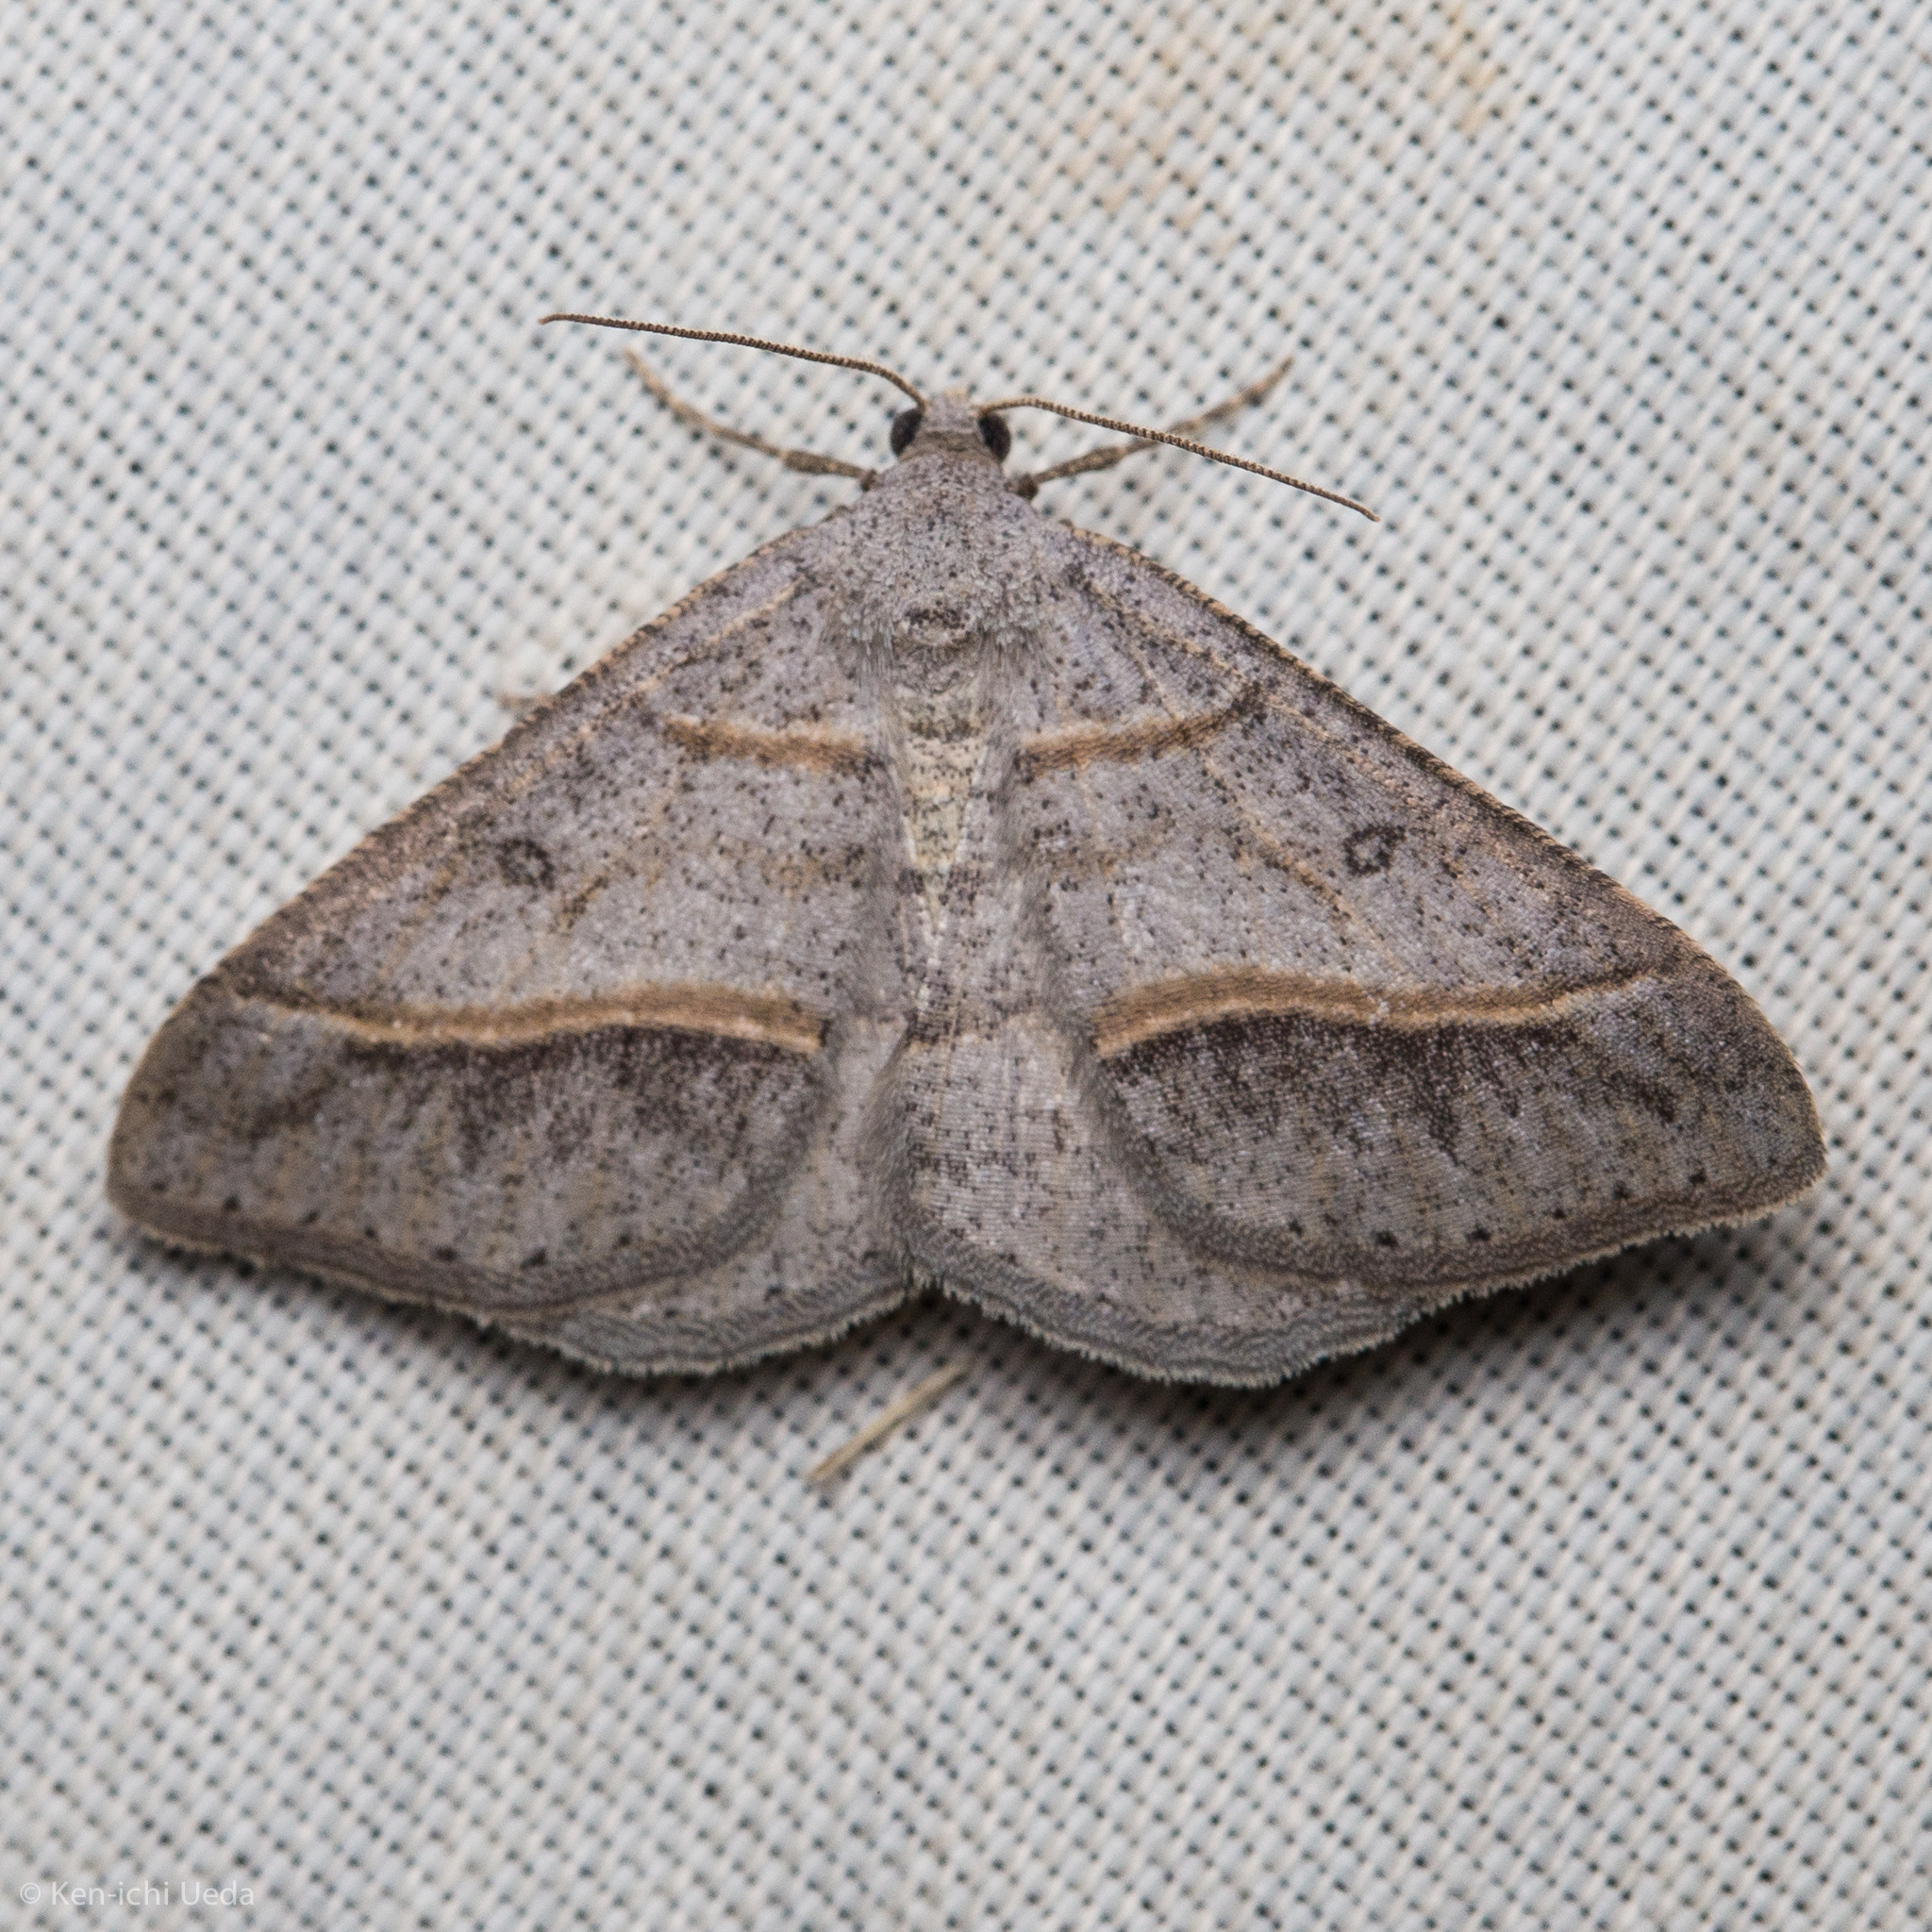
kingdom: Animalia
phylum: Arthropoda
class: Insecta
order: Lepidoptera
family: Geometridae
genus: Digrammia
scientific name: Digrammia neptaria
